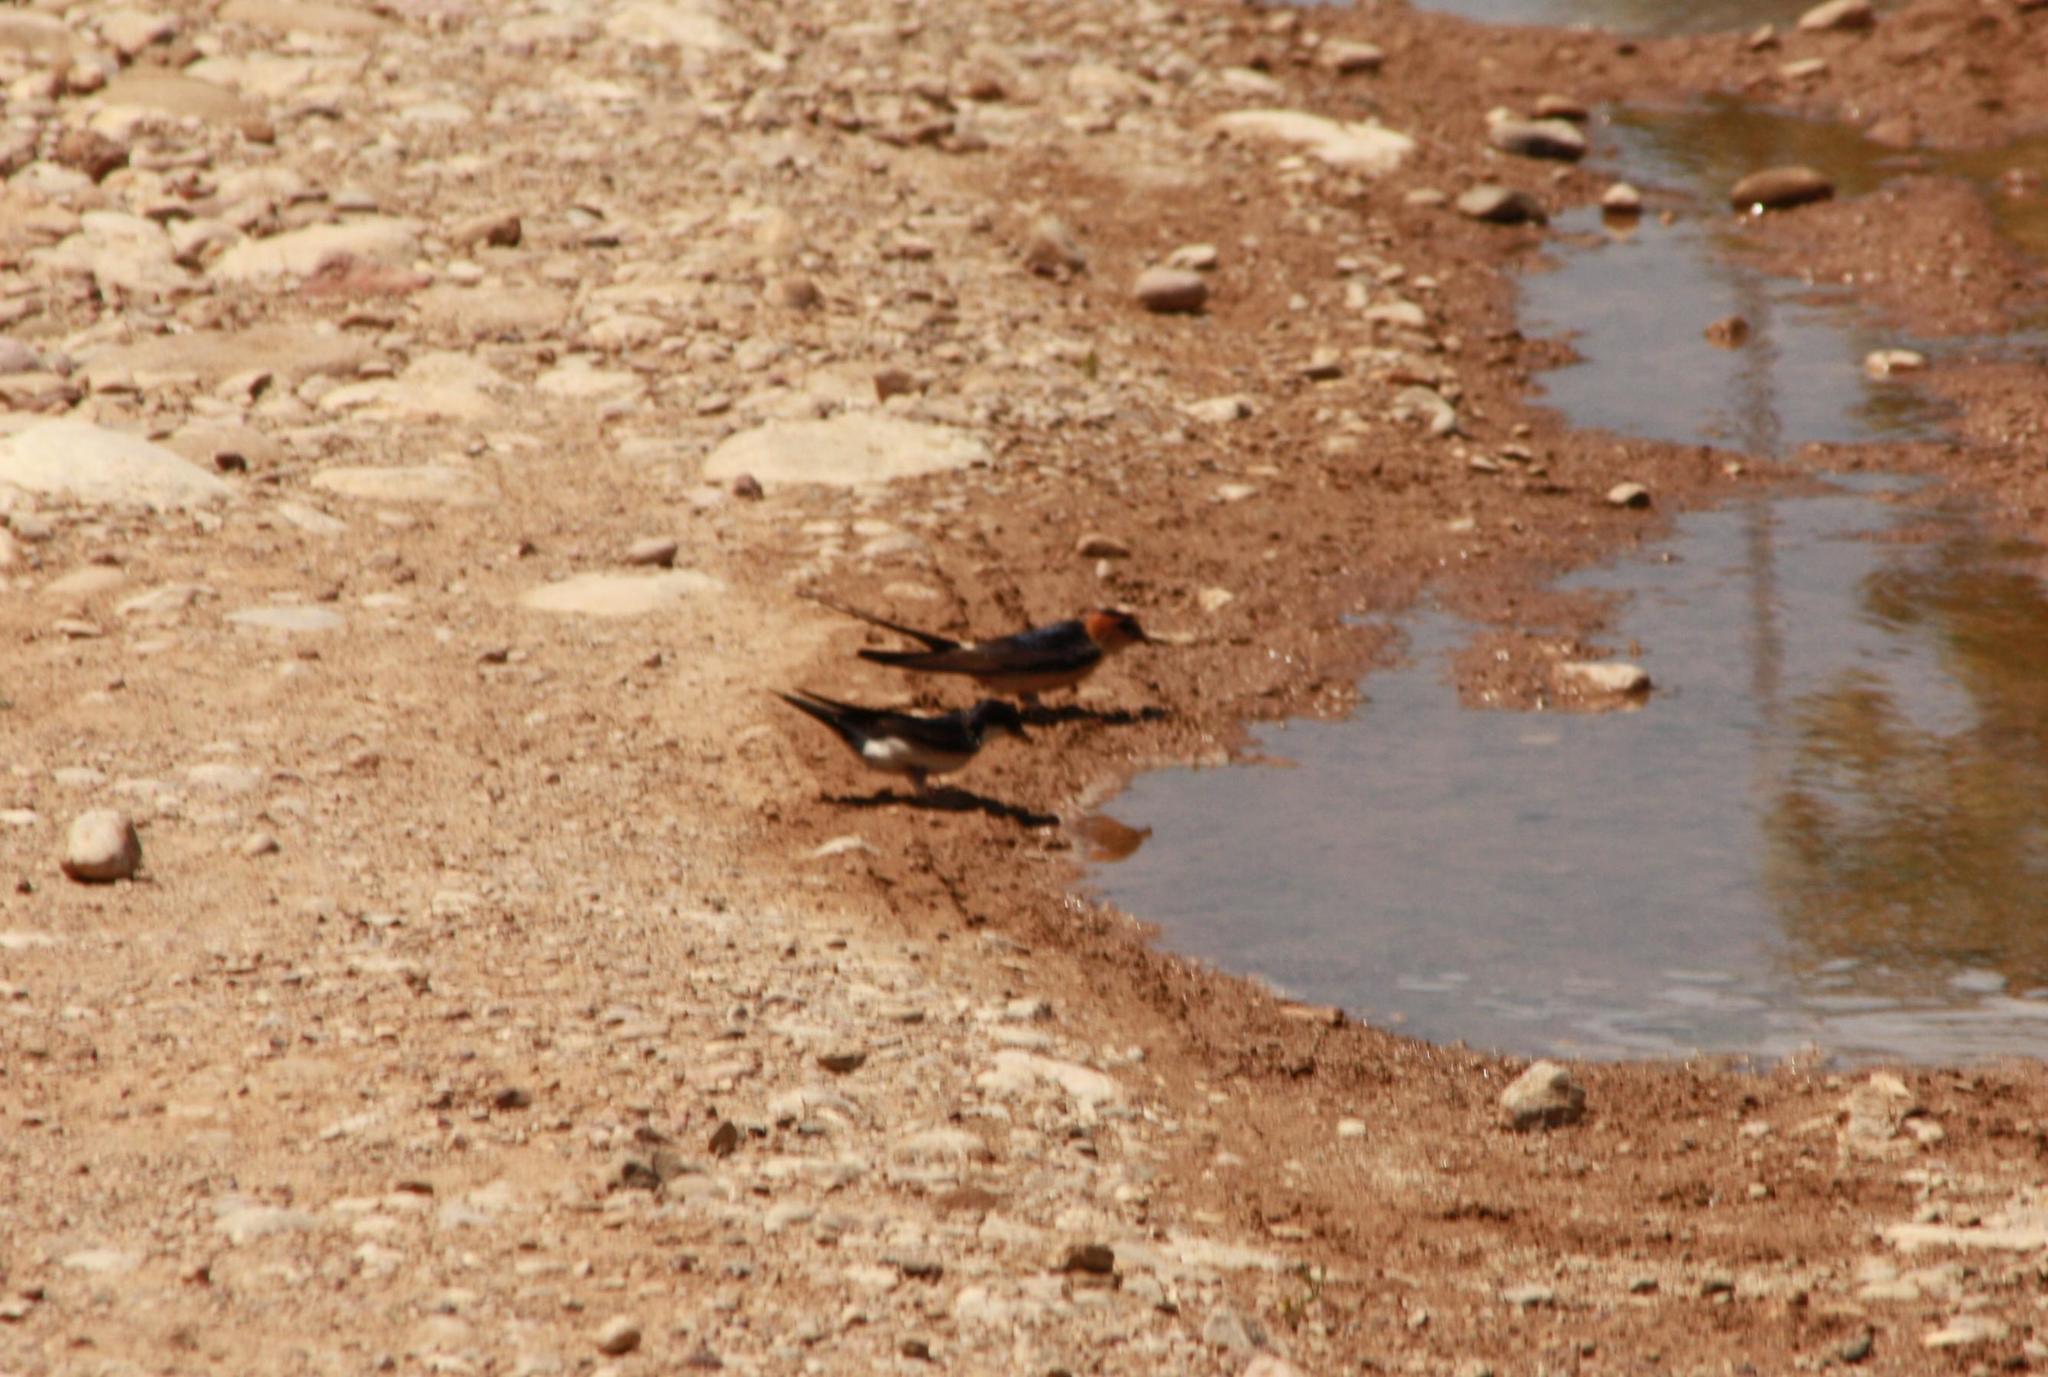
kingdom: Animalia
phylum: Chordata
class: Aves
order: Passeriformes
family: Hirundinidae
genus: Cecropis
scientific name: Cecropis daurica
